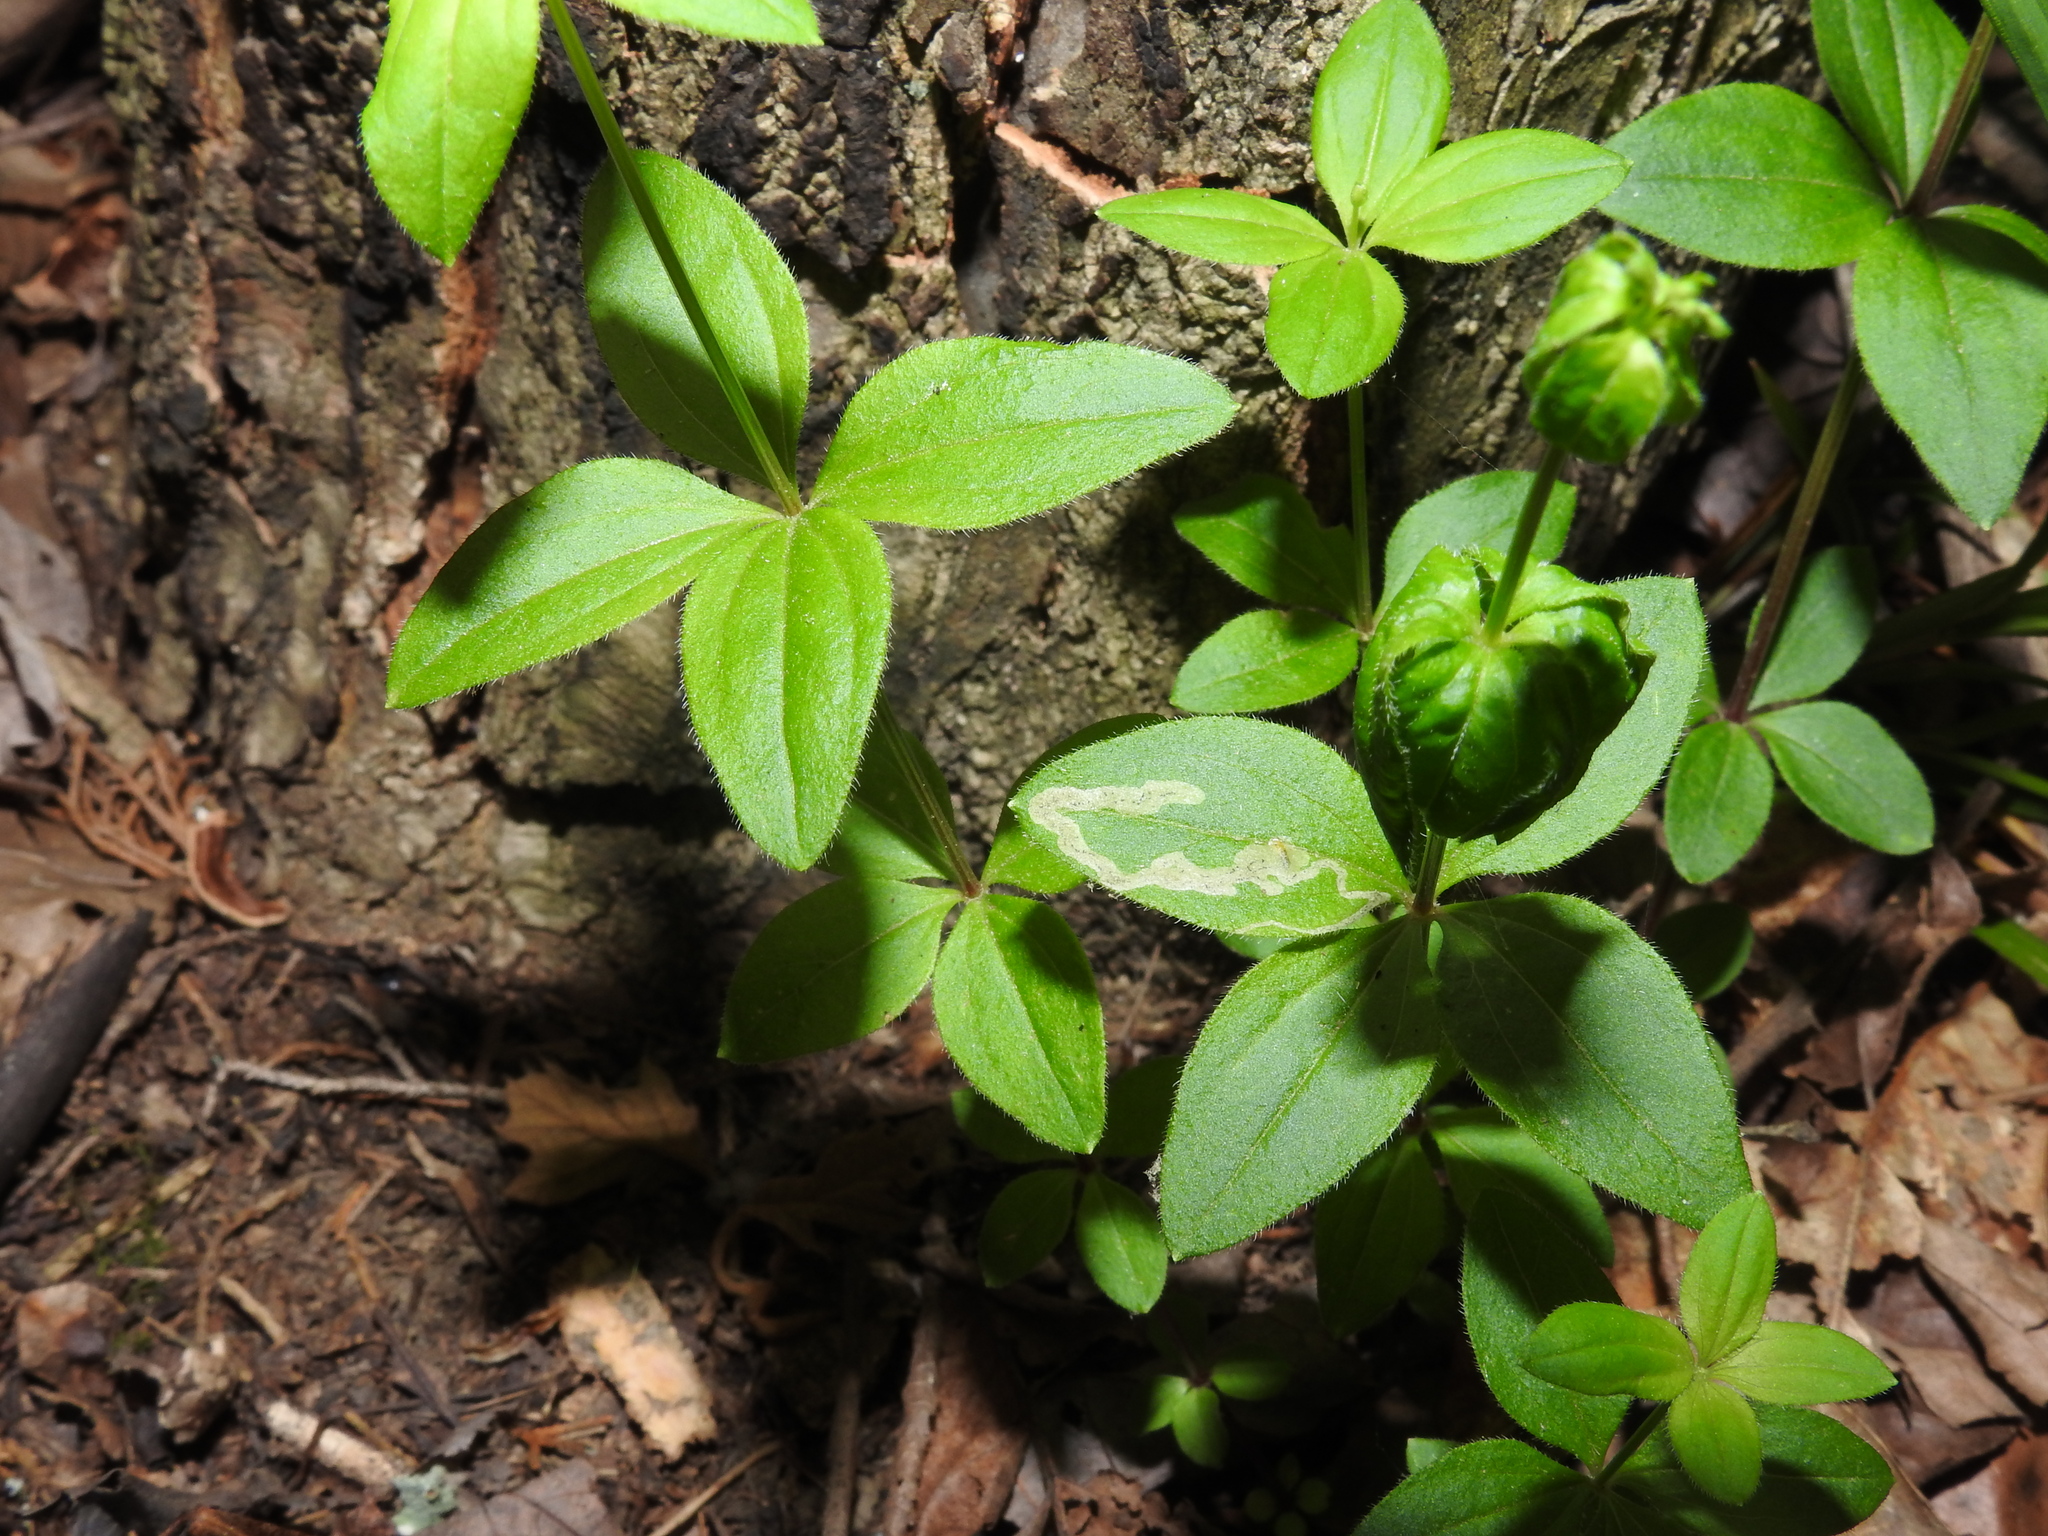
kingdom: Plantae
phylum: Tracheophyta
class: Magnoliopsida
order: Gentianales
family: Rubiaceae
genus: Galium
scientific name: Galium circaezans
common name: Forest bedstraw
